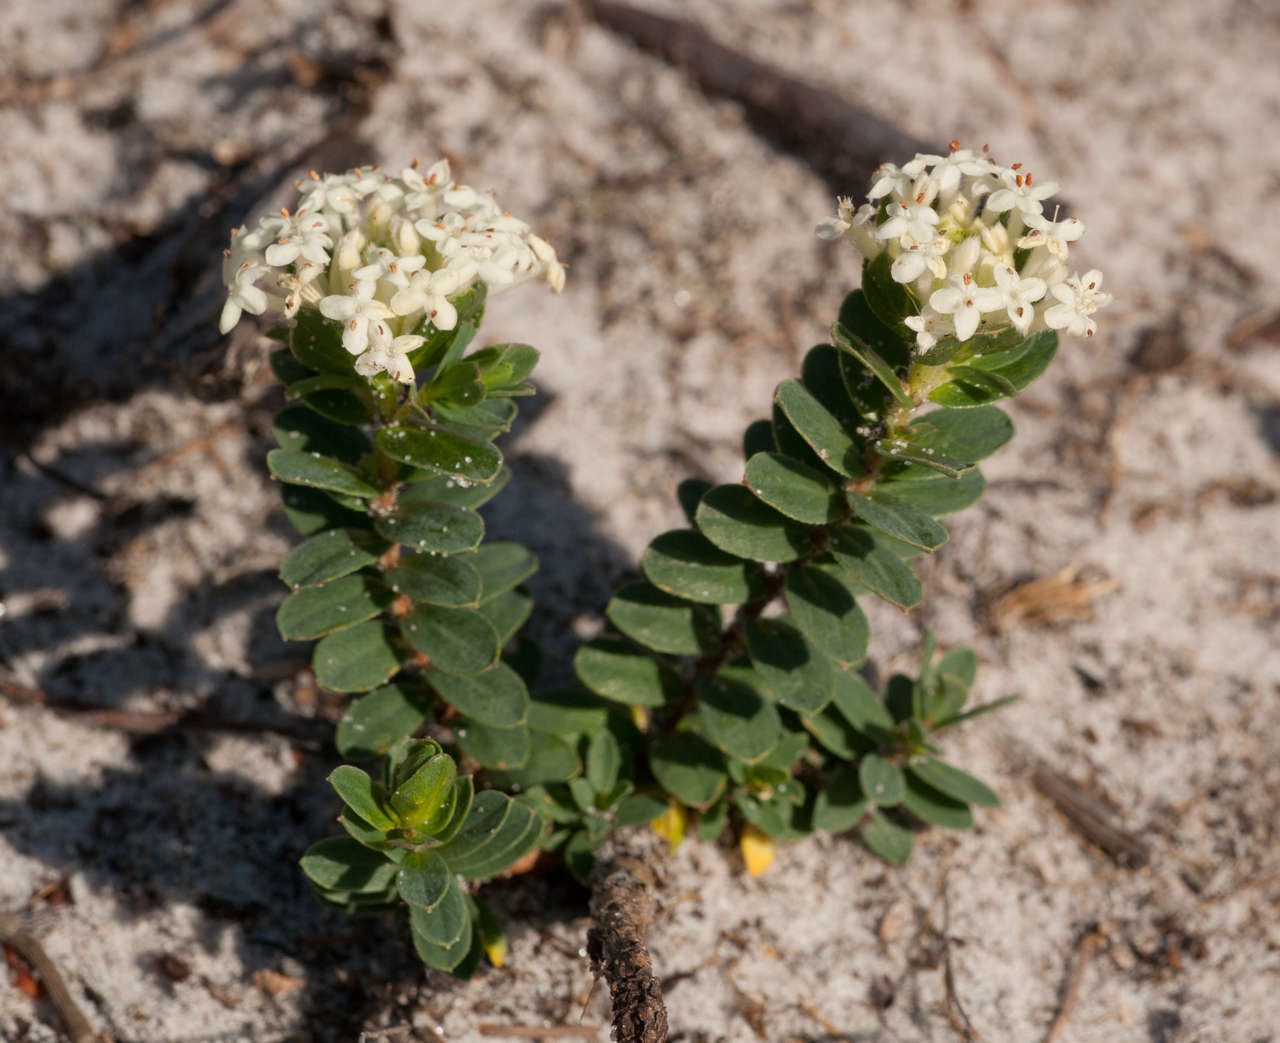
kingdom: Plantae
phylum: Tracheophyta
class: Magnoliopsida
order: Malvales
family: Thymelaeaceae
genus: Pimelea
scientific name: Pimelea humilis
